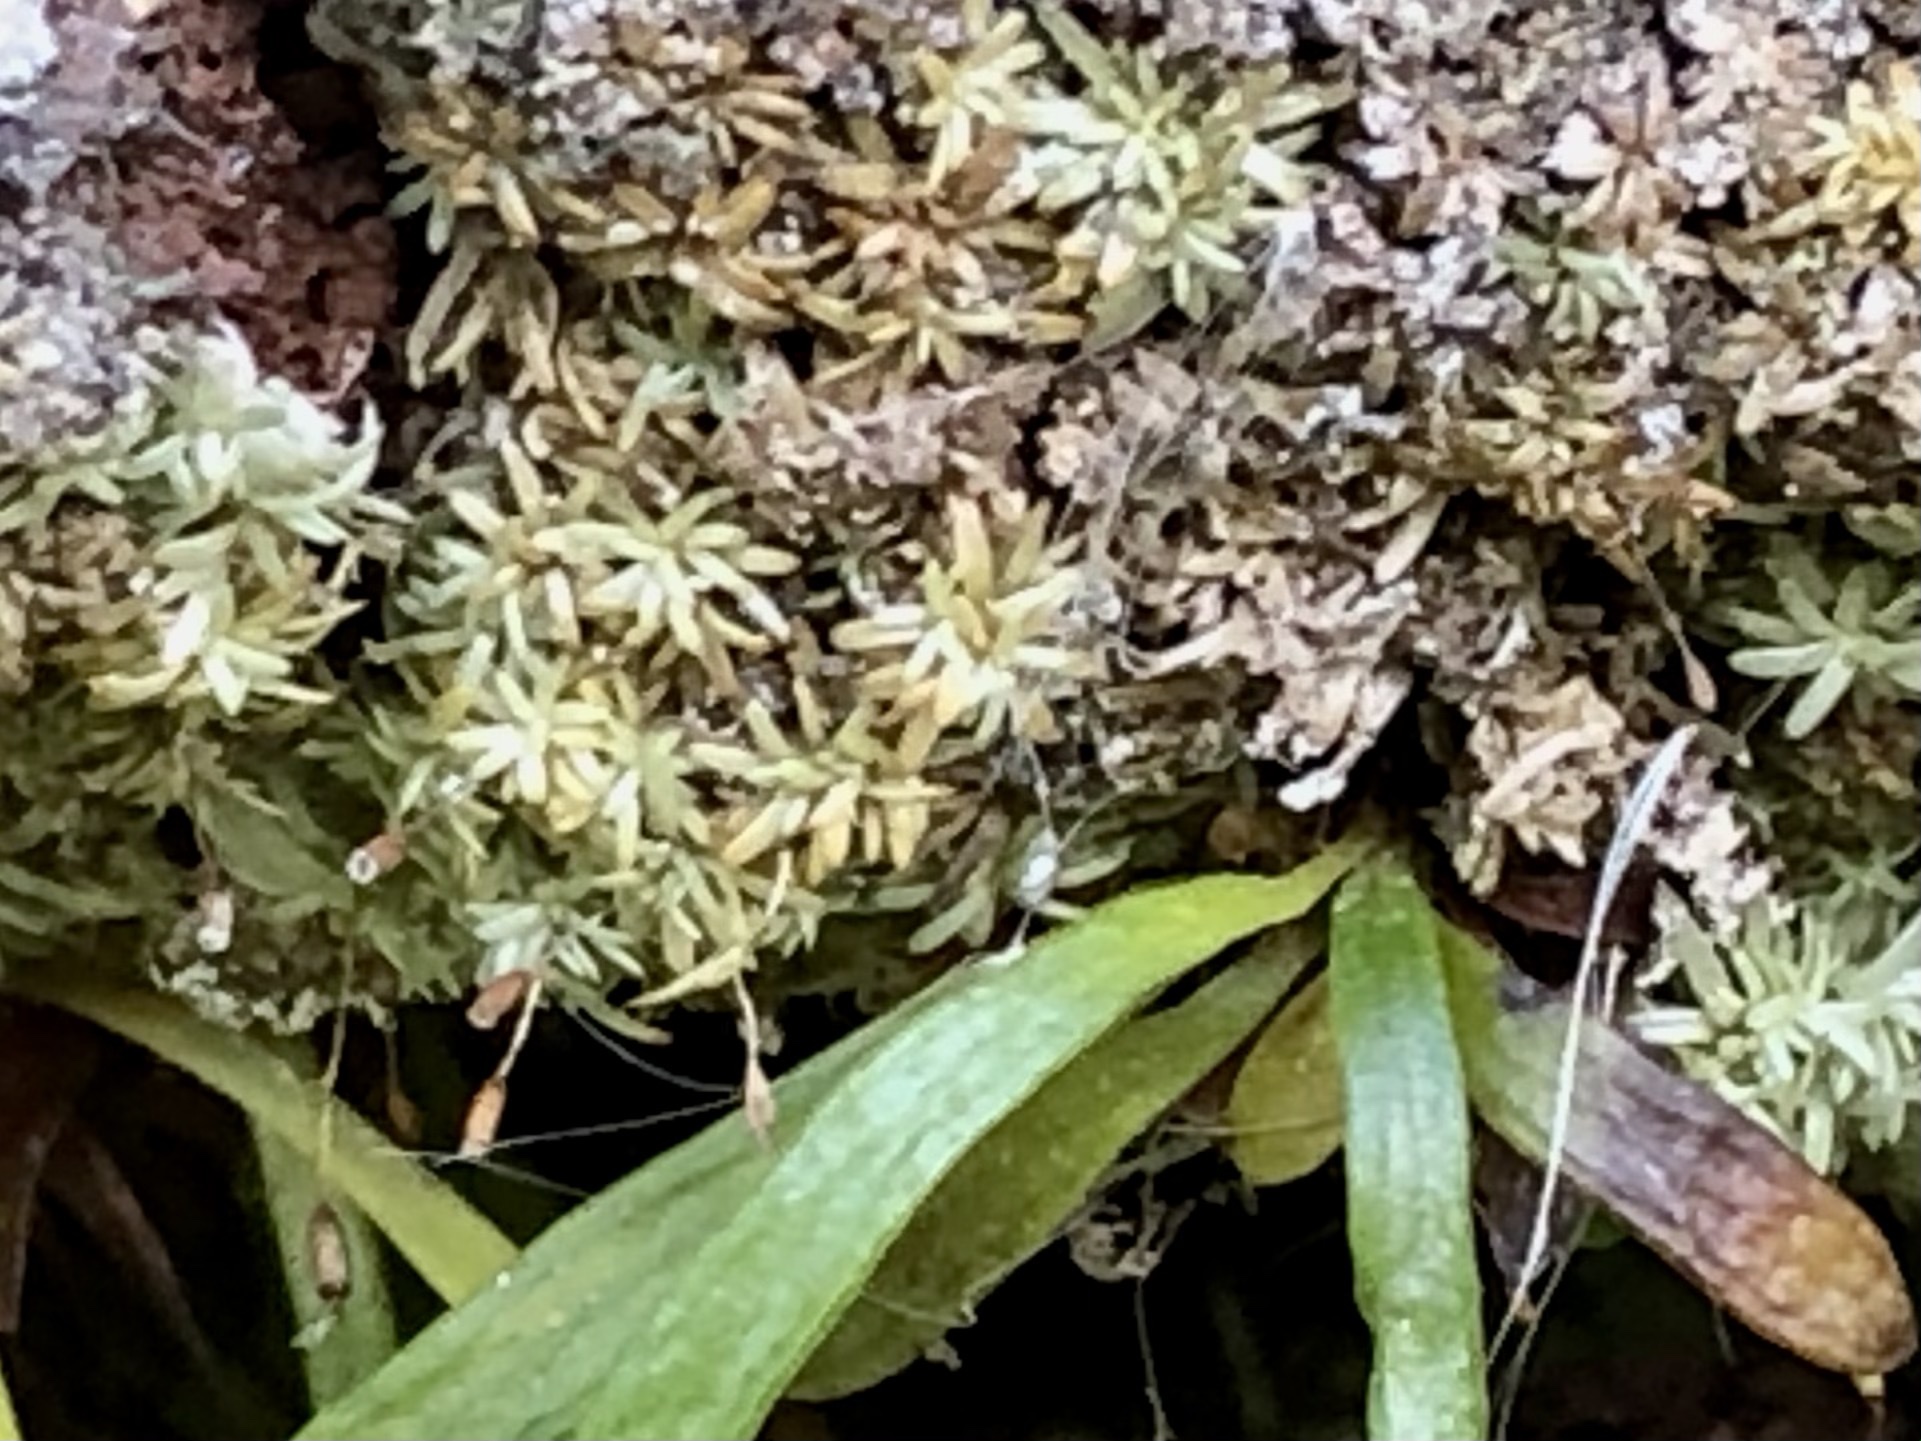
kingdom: Plantae
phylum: Bryophyta
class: Bryopsida
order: Dicranales
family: Octoblepharaceae
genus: Octoblepharum
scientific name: Octoblepharum albidum
